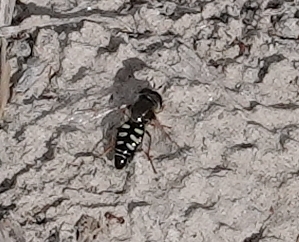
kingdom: Animalia
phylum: Arthropoda
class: Insecta
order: Diptera
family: Syrphidae
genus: Eupeodes
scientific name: Eupeodes volucris
